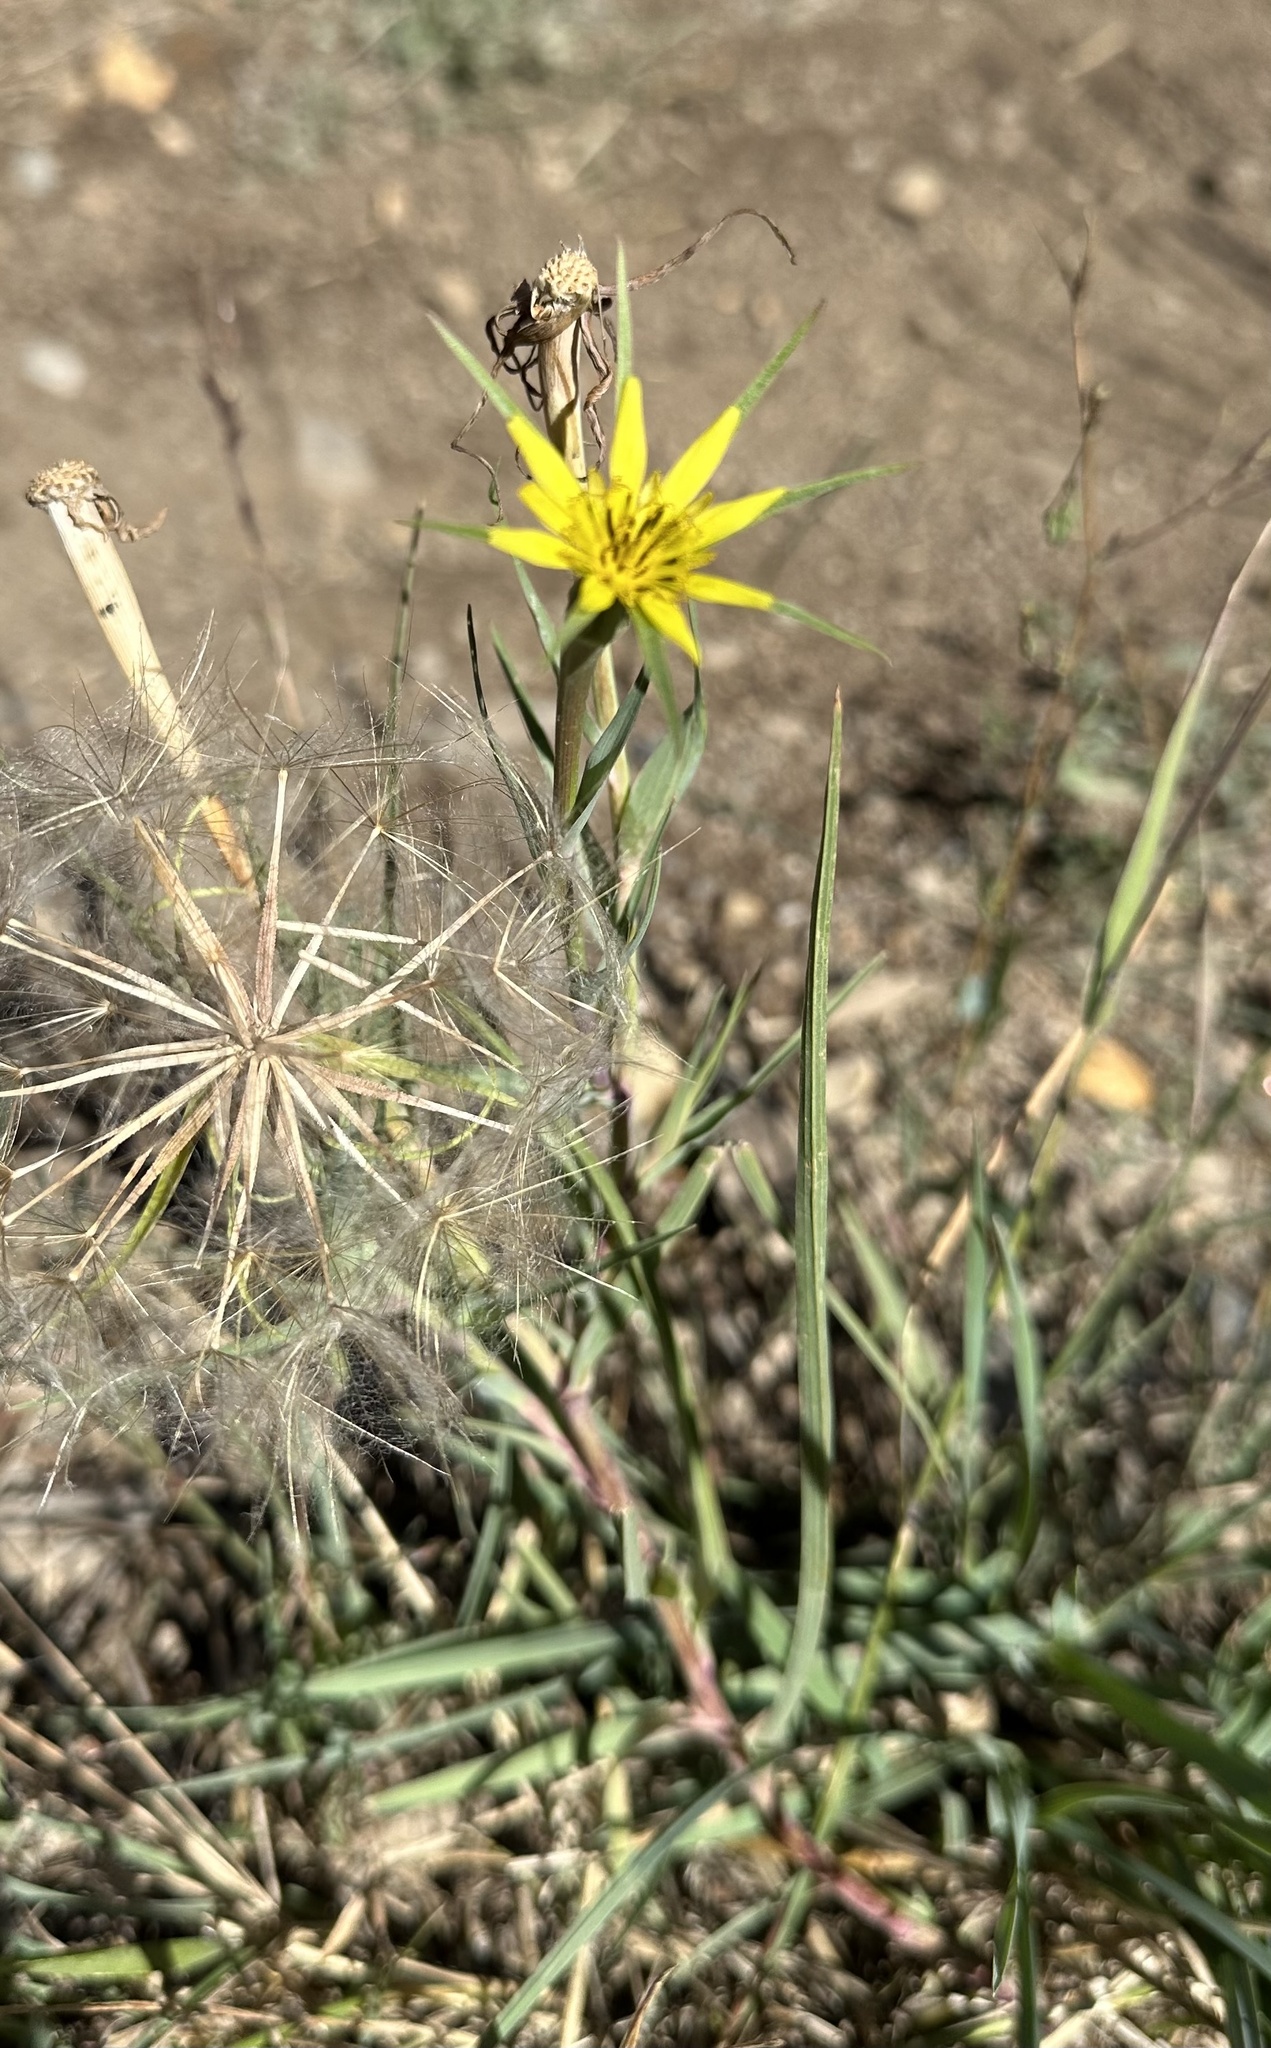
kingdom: Plantae
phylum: Tracheophyta
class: Magnoliopsida
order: Asterales
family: Asteraceae
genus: Tragopogon
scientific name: Tragopogon dubius
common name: Yellow salsify
